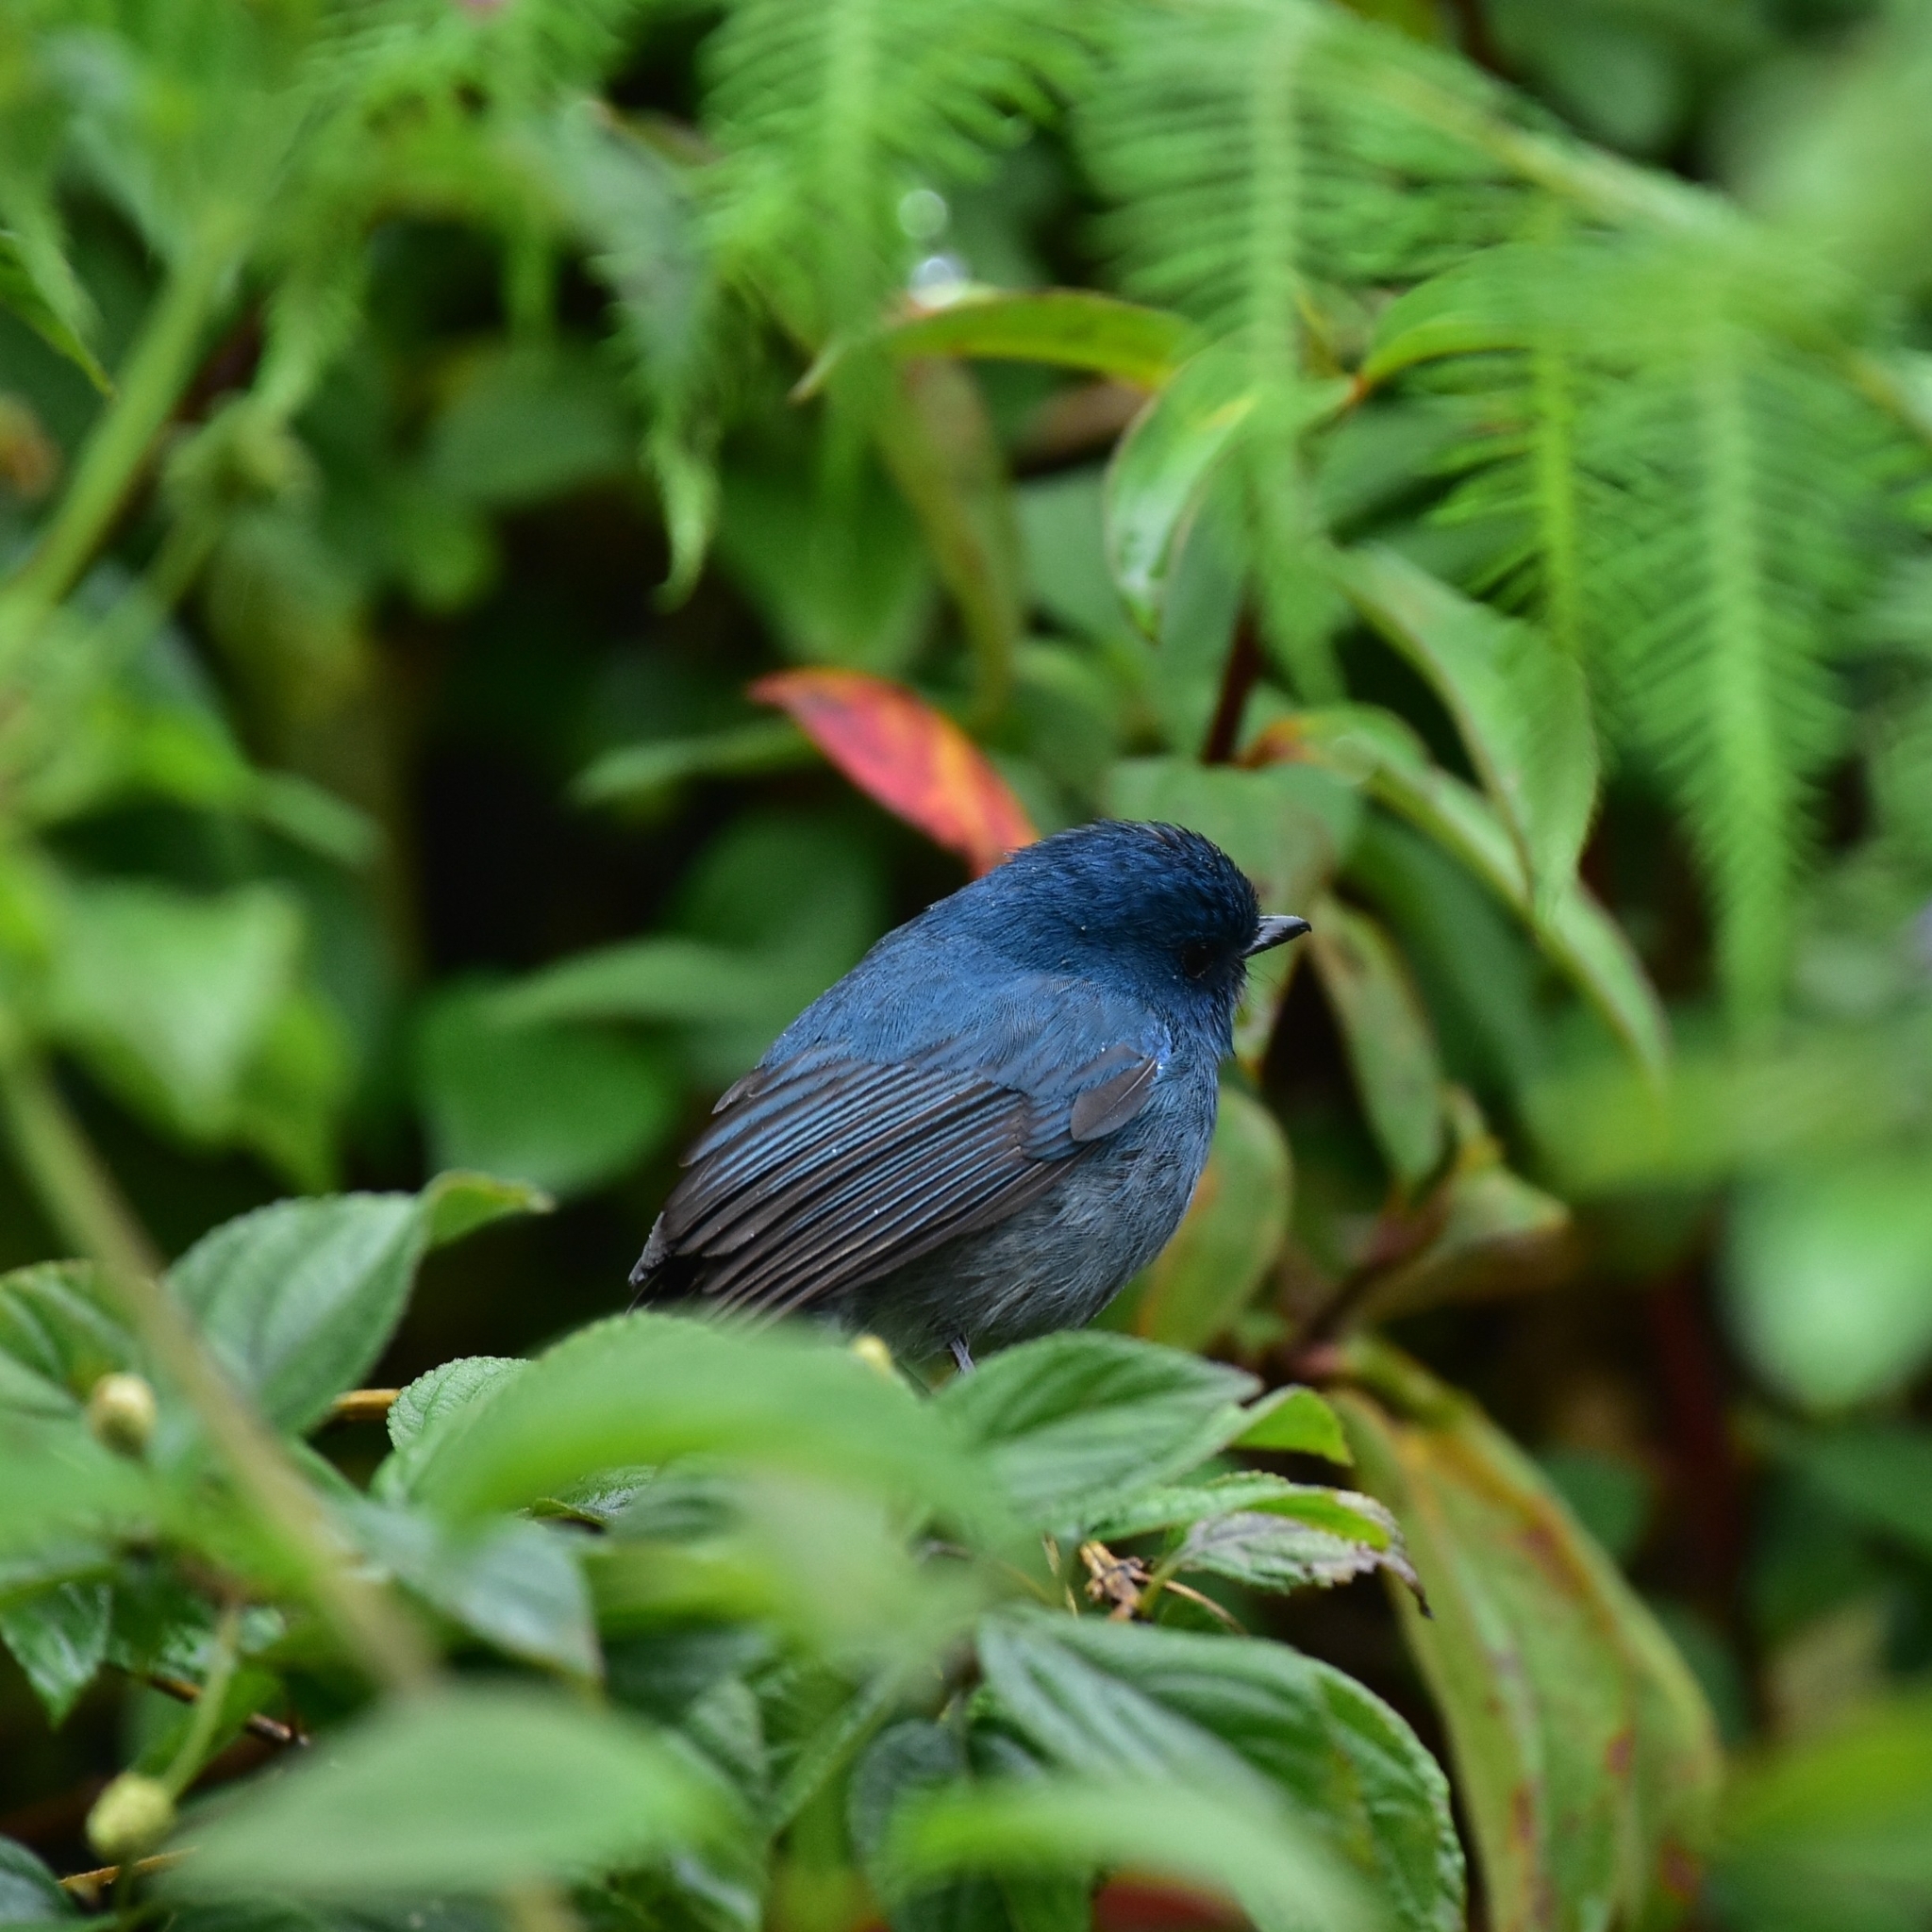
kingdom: Animalia
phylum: Chordata
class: Aves
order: Passeriformes
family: Muscicapidae
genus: Eumyias
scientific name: Eumyias albicaudatus
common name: Nilgiri flycatcher
